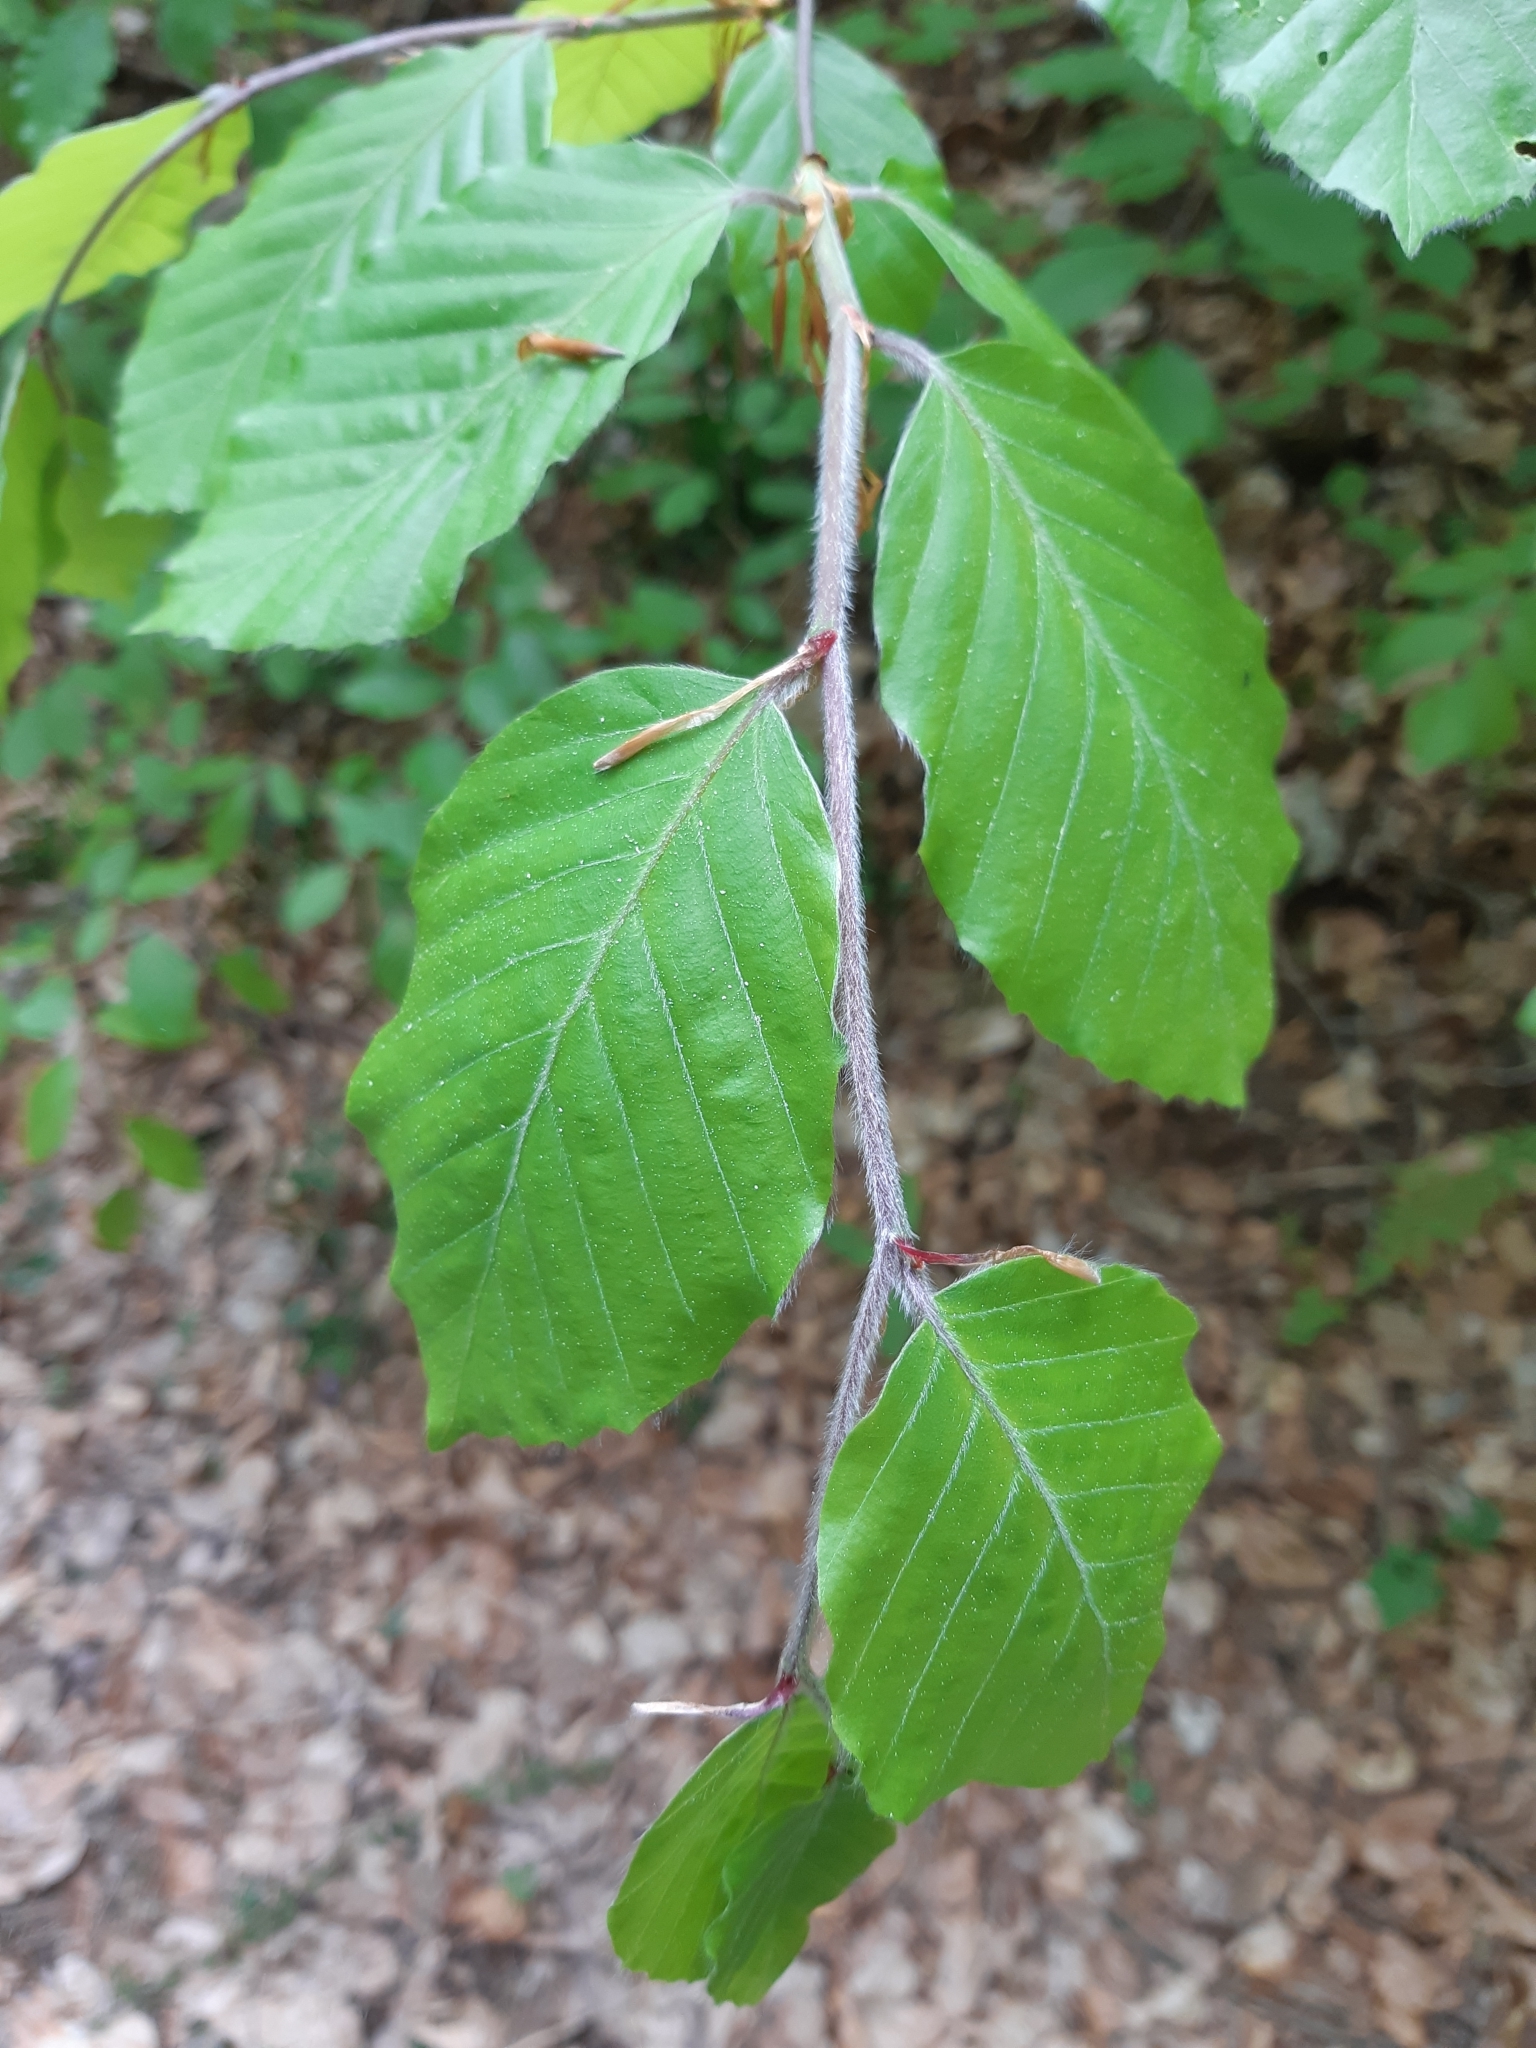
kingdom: Plantae
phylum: Tracheophyta
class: Magnoliopsida
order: Fagales
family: Fagaceae
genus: Fagus
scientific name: Fagus sylvatica
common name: Beech
